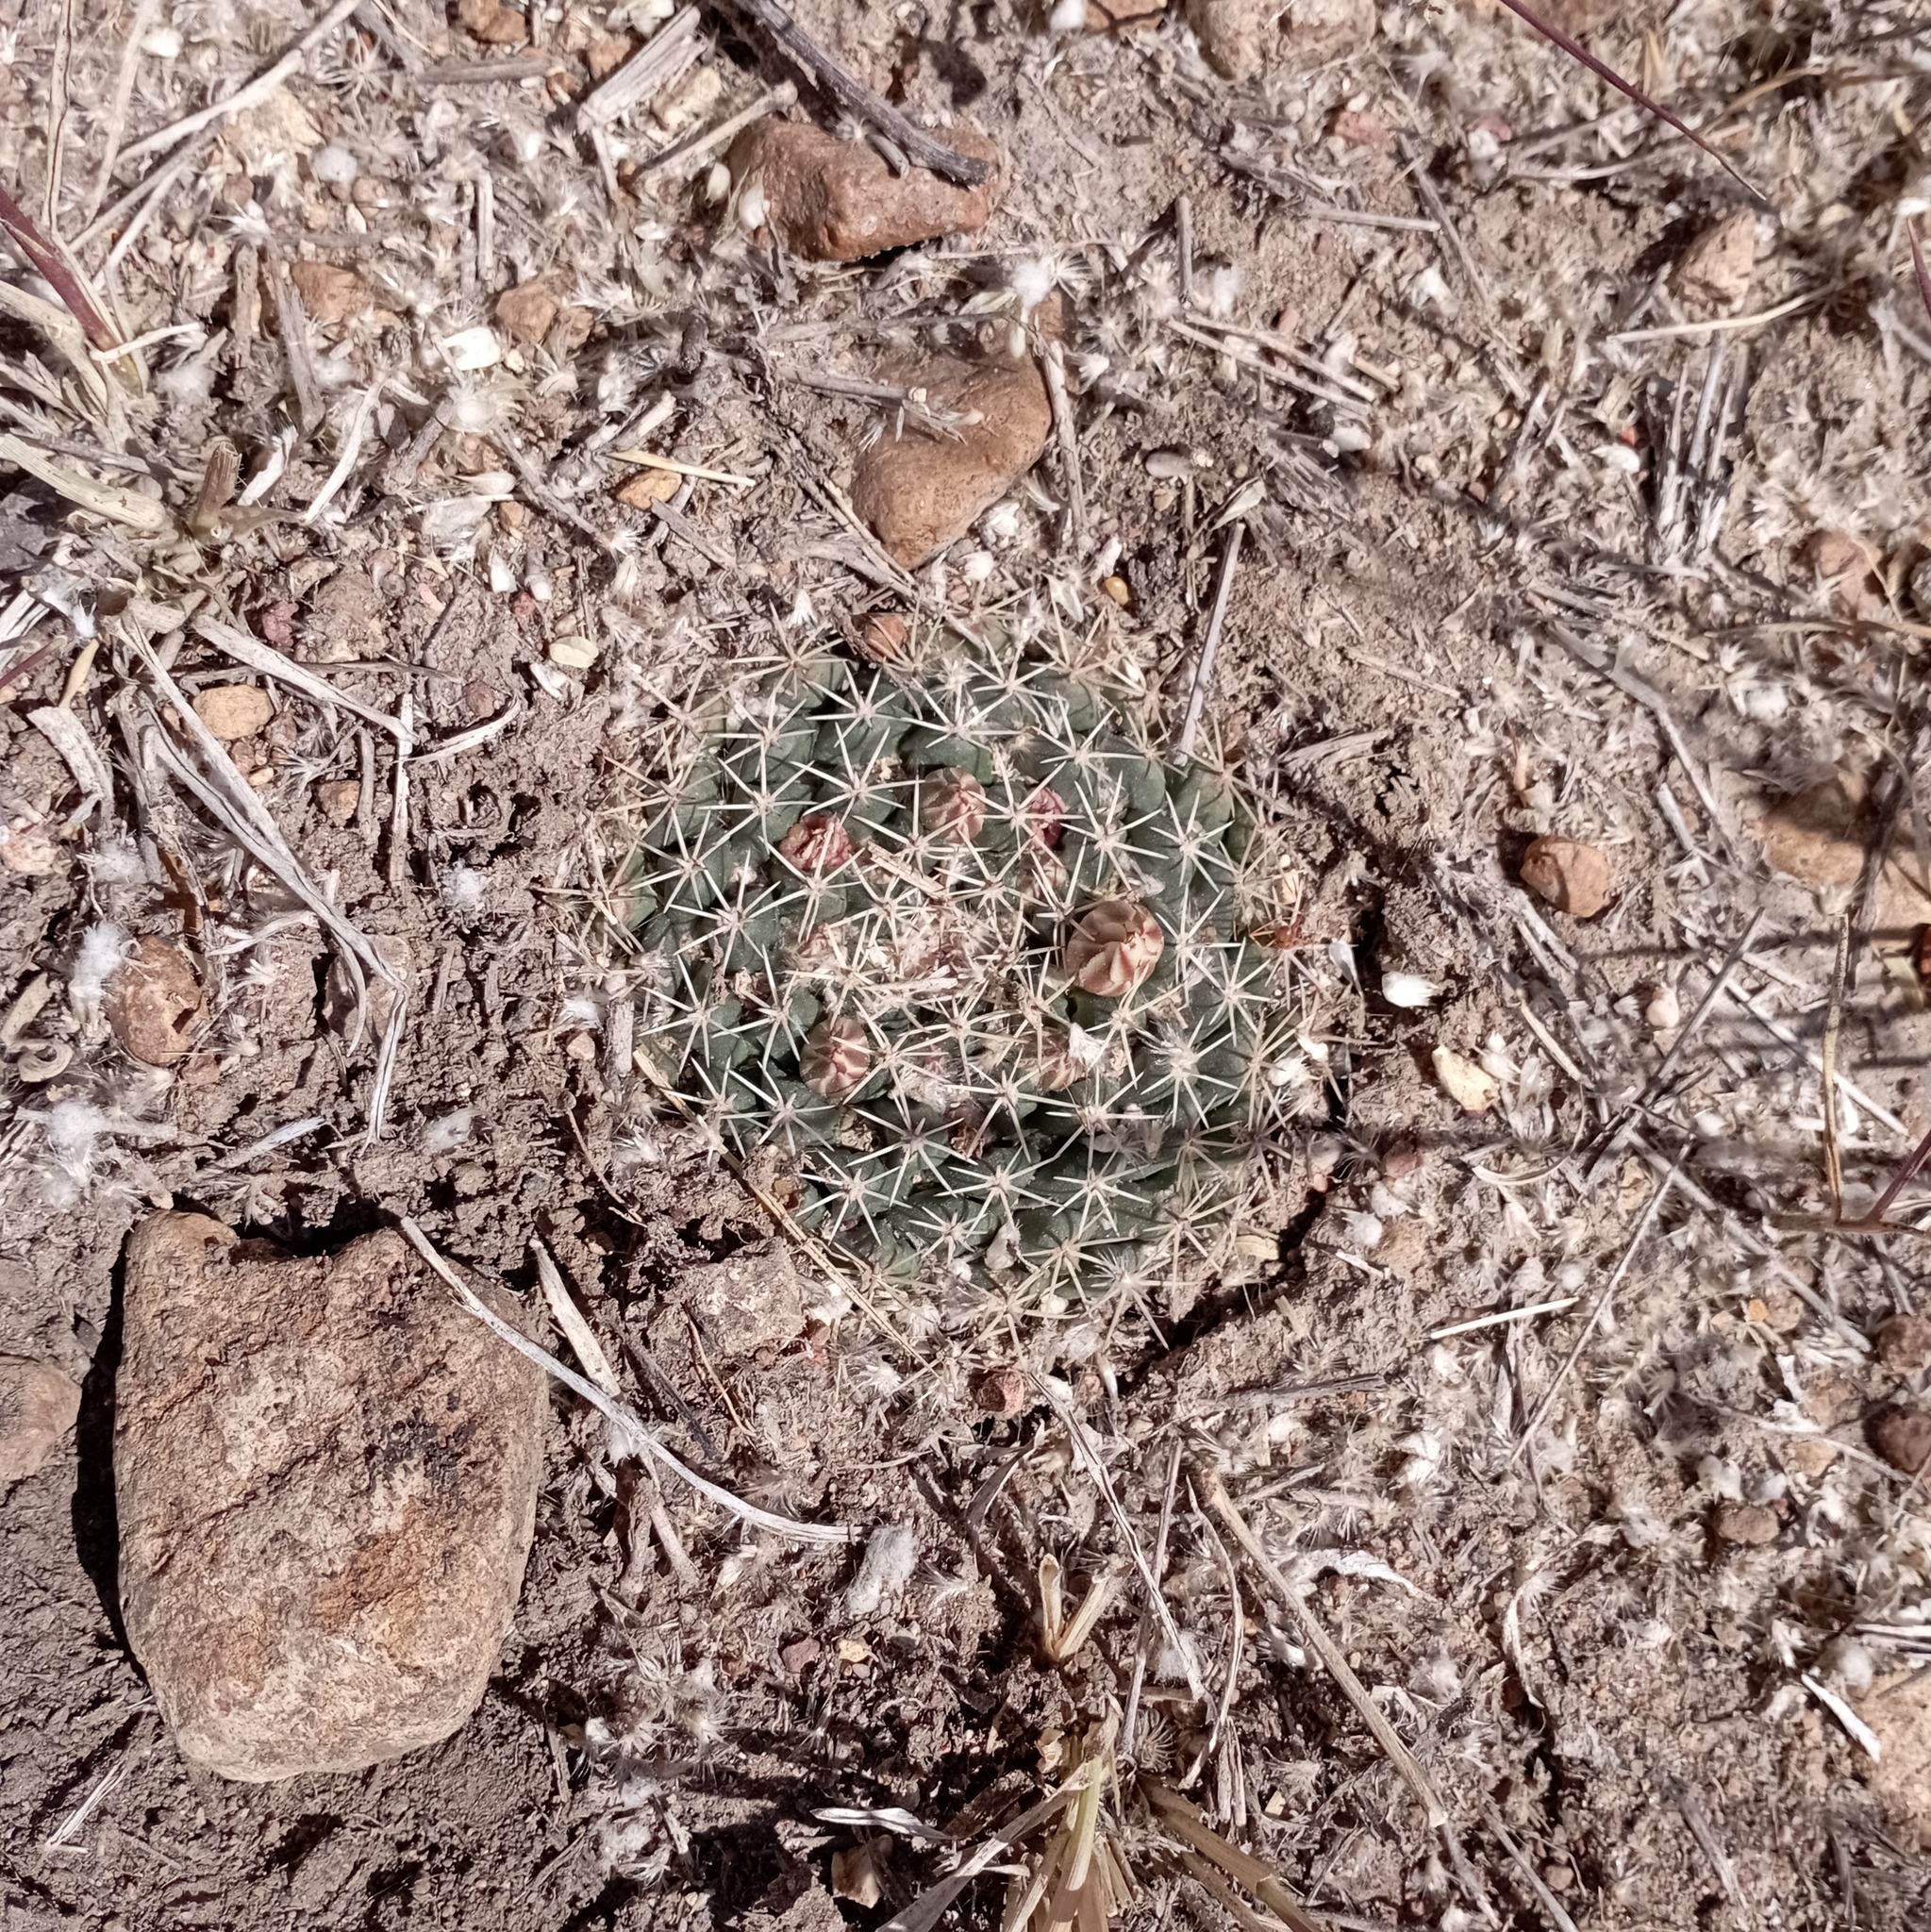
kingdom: Plantae
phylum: Tracheophyta
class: Magnoliopsida
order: Caryophyllales
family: Cactaceae
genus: Mammillaria
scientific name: Mammillaria uncinata
